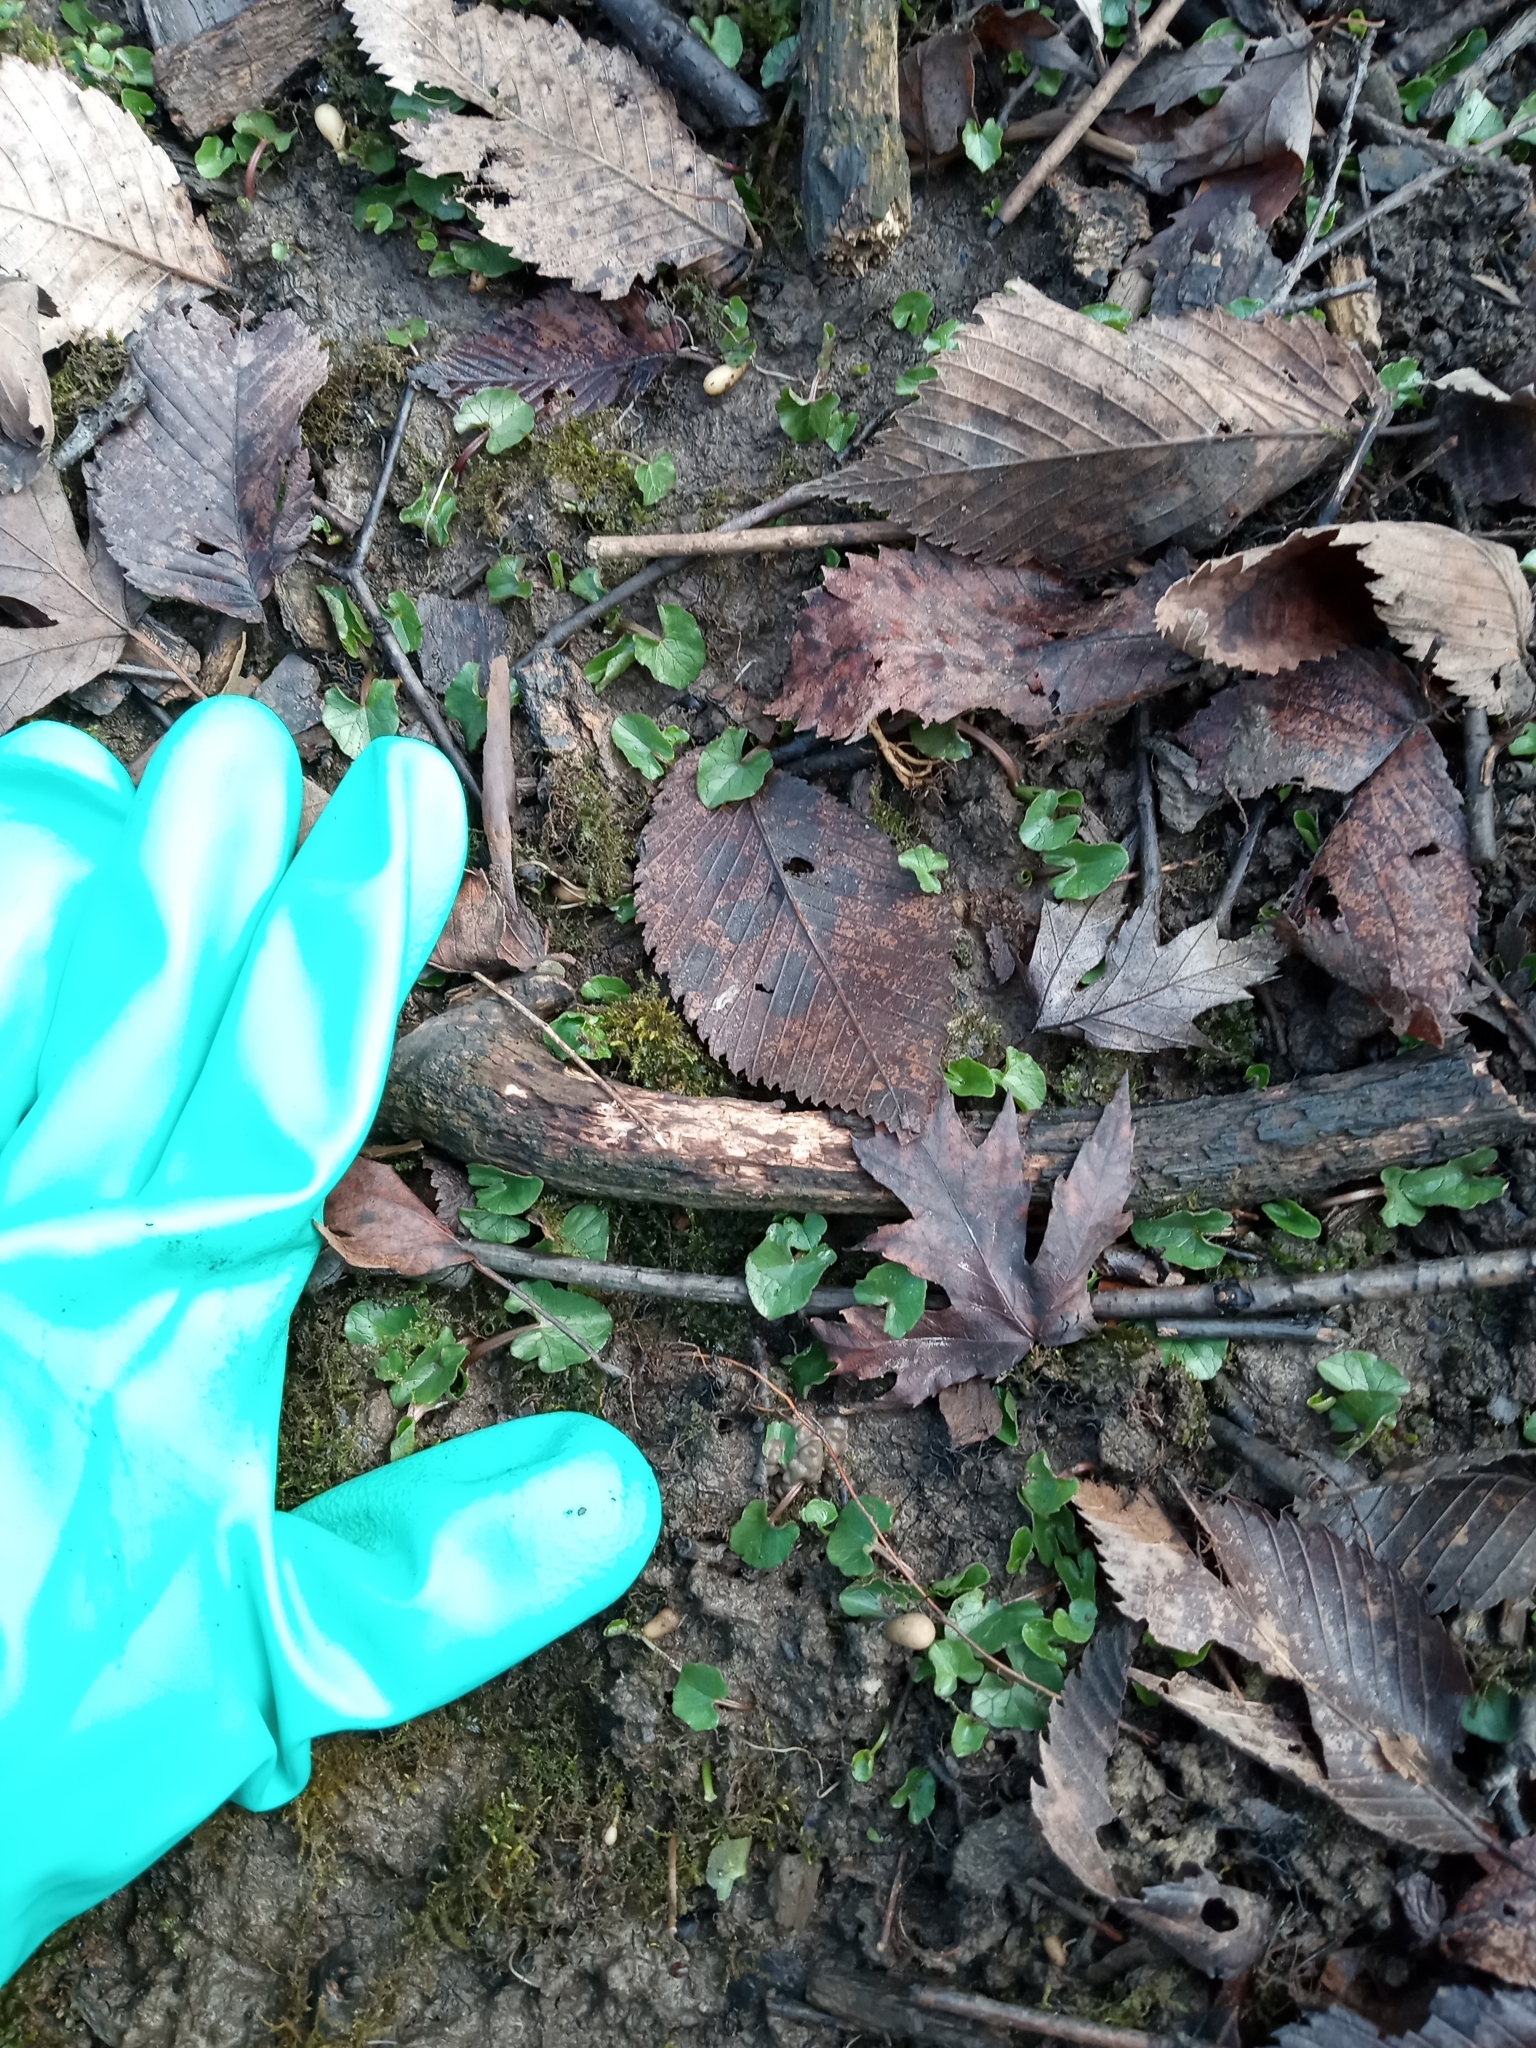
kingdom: Plantae
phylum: Tracheophyta
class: Magnoliopsida
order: Ranunculales
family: Ranunculaceae
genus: Ficaria
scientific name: Ficaria verna
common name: Lesser celandine
